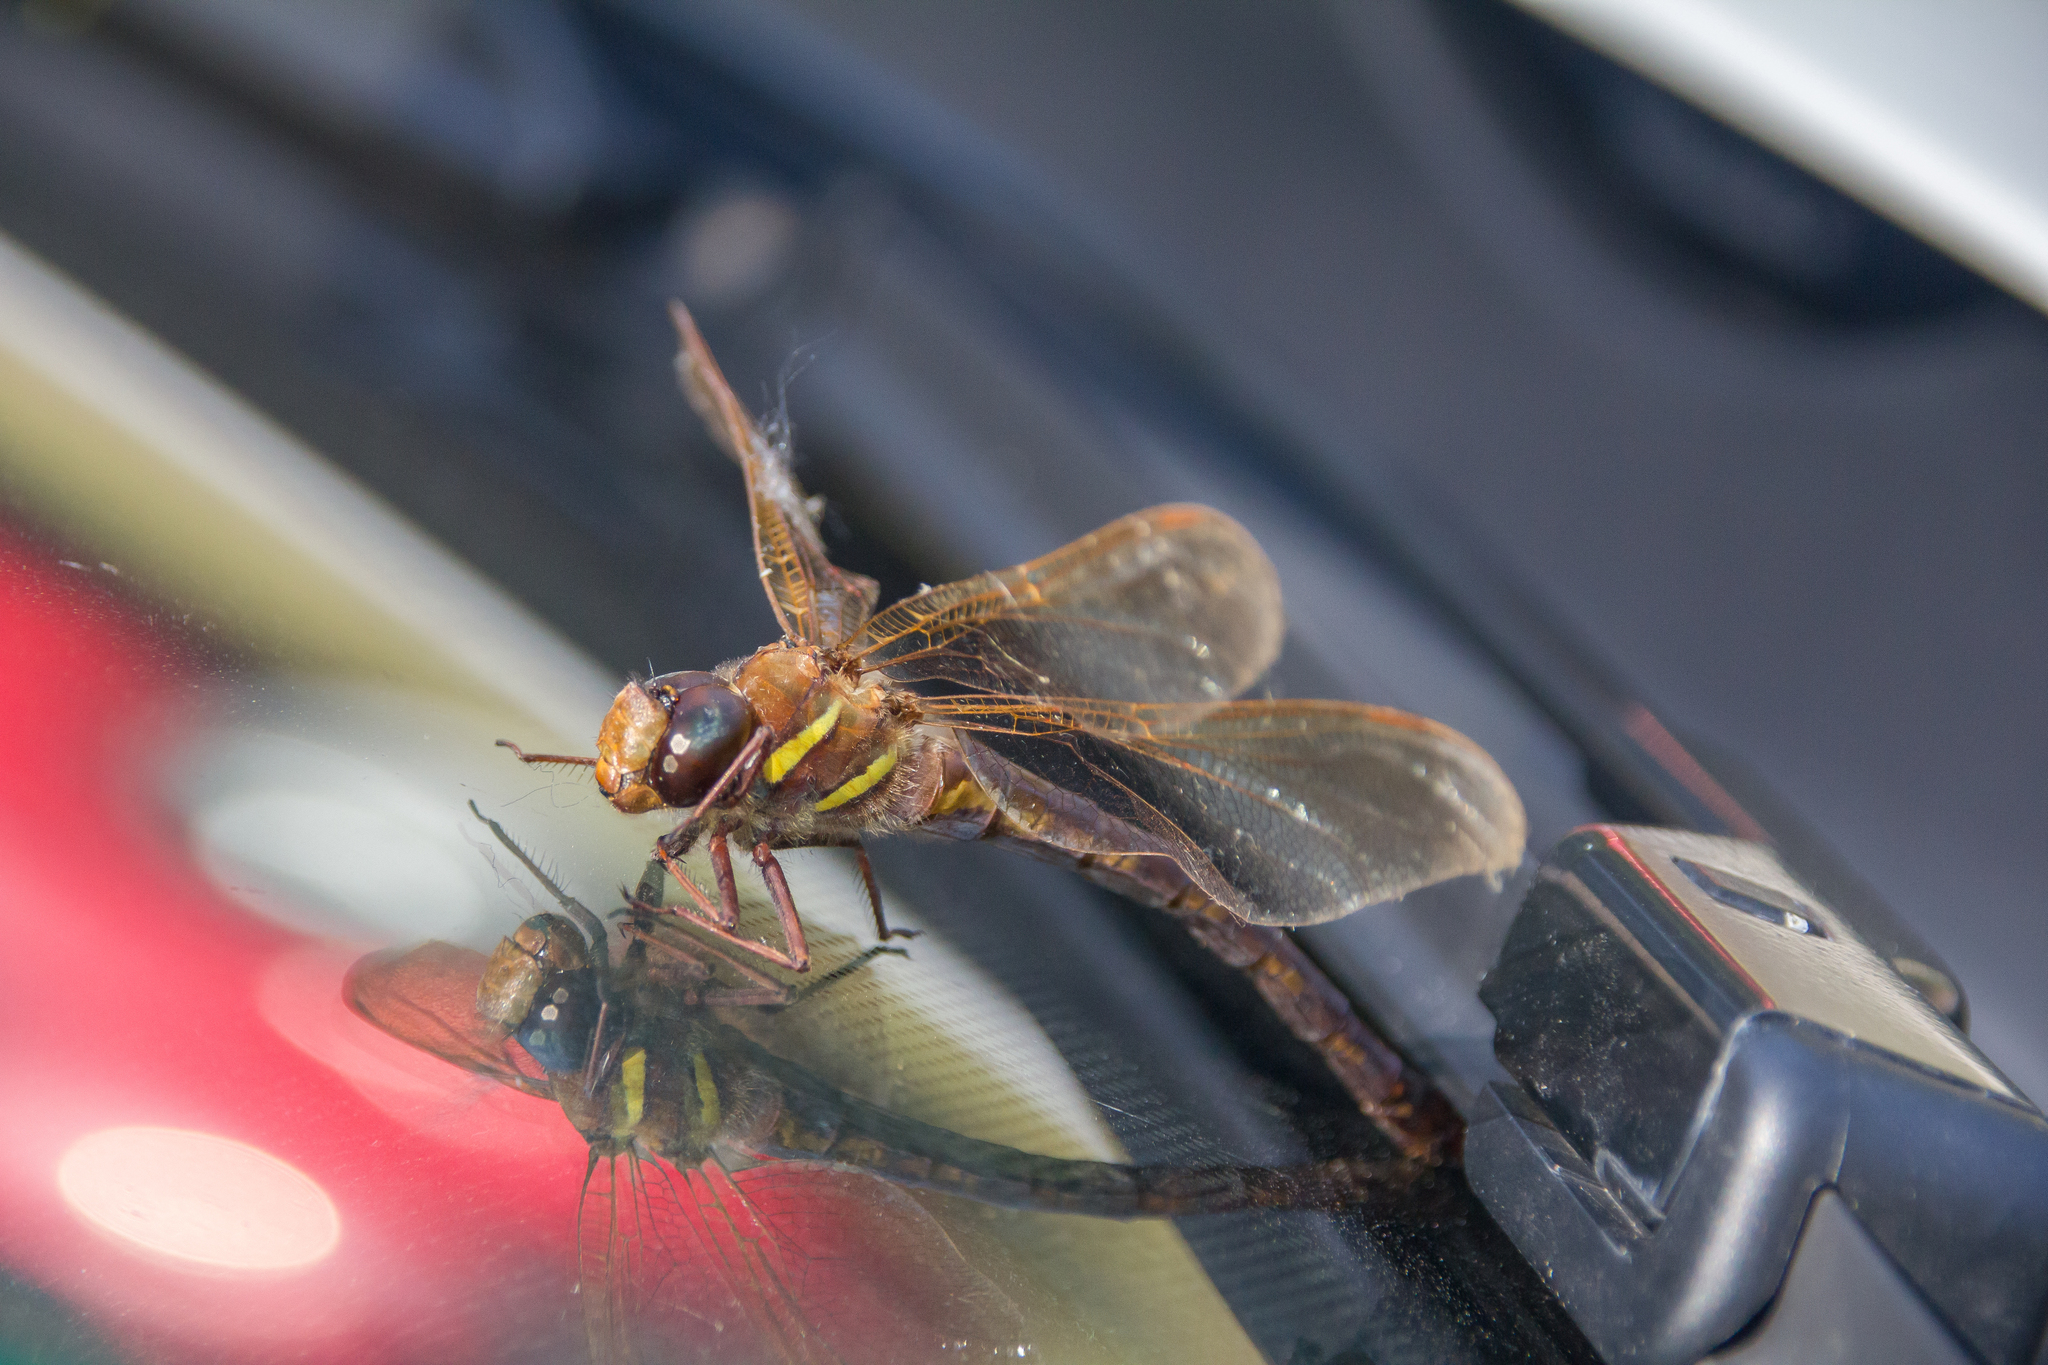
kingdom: Animalia
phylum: Arthropoda
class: Insecta
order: Odonata
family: Aeshnidae
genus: Aeshna
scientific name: Aeshna grandis
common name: Brown hawker
